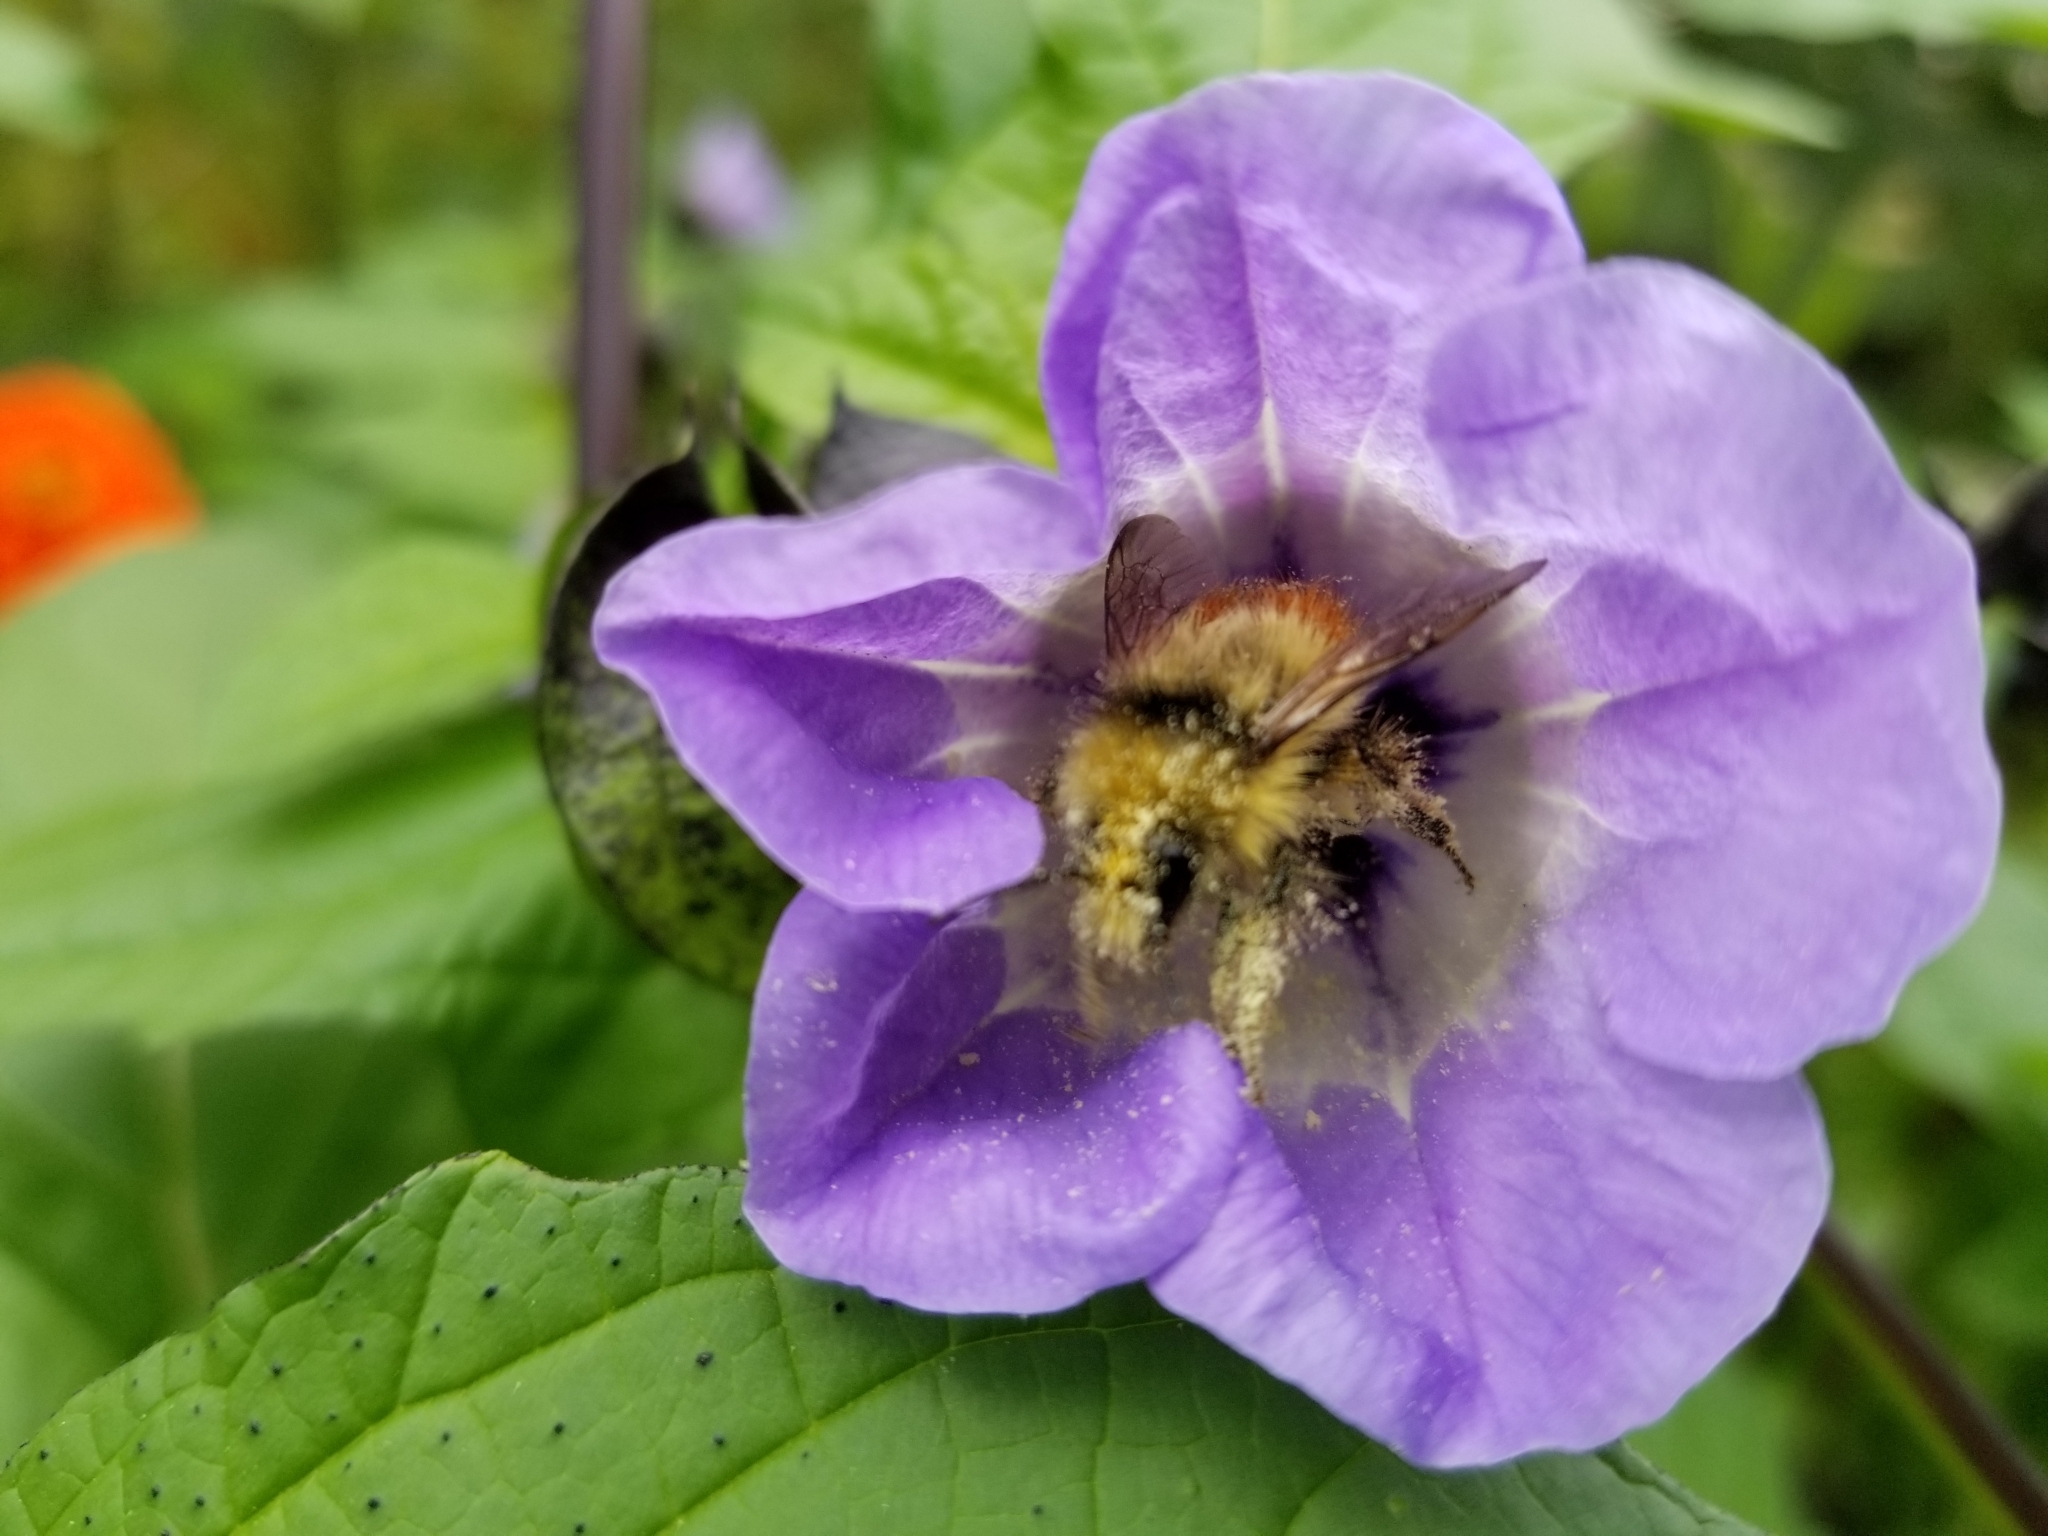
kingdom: Animalia
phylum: Arthropoda
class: Insecta
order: Hymenoptera
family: Apidae
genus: Bombus
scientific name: Bombus flavifrons
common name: Yellow head bumble bee
